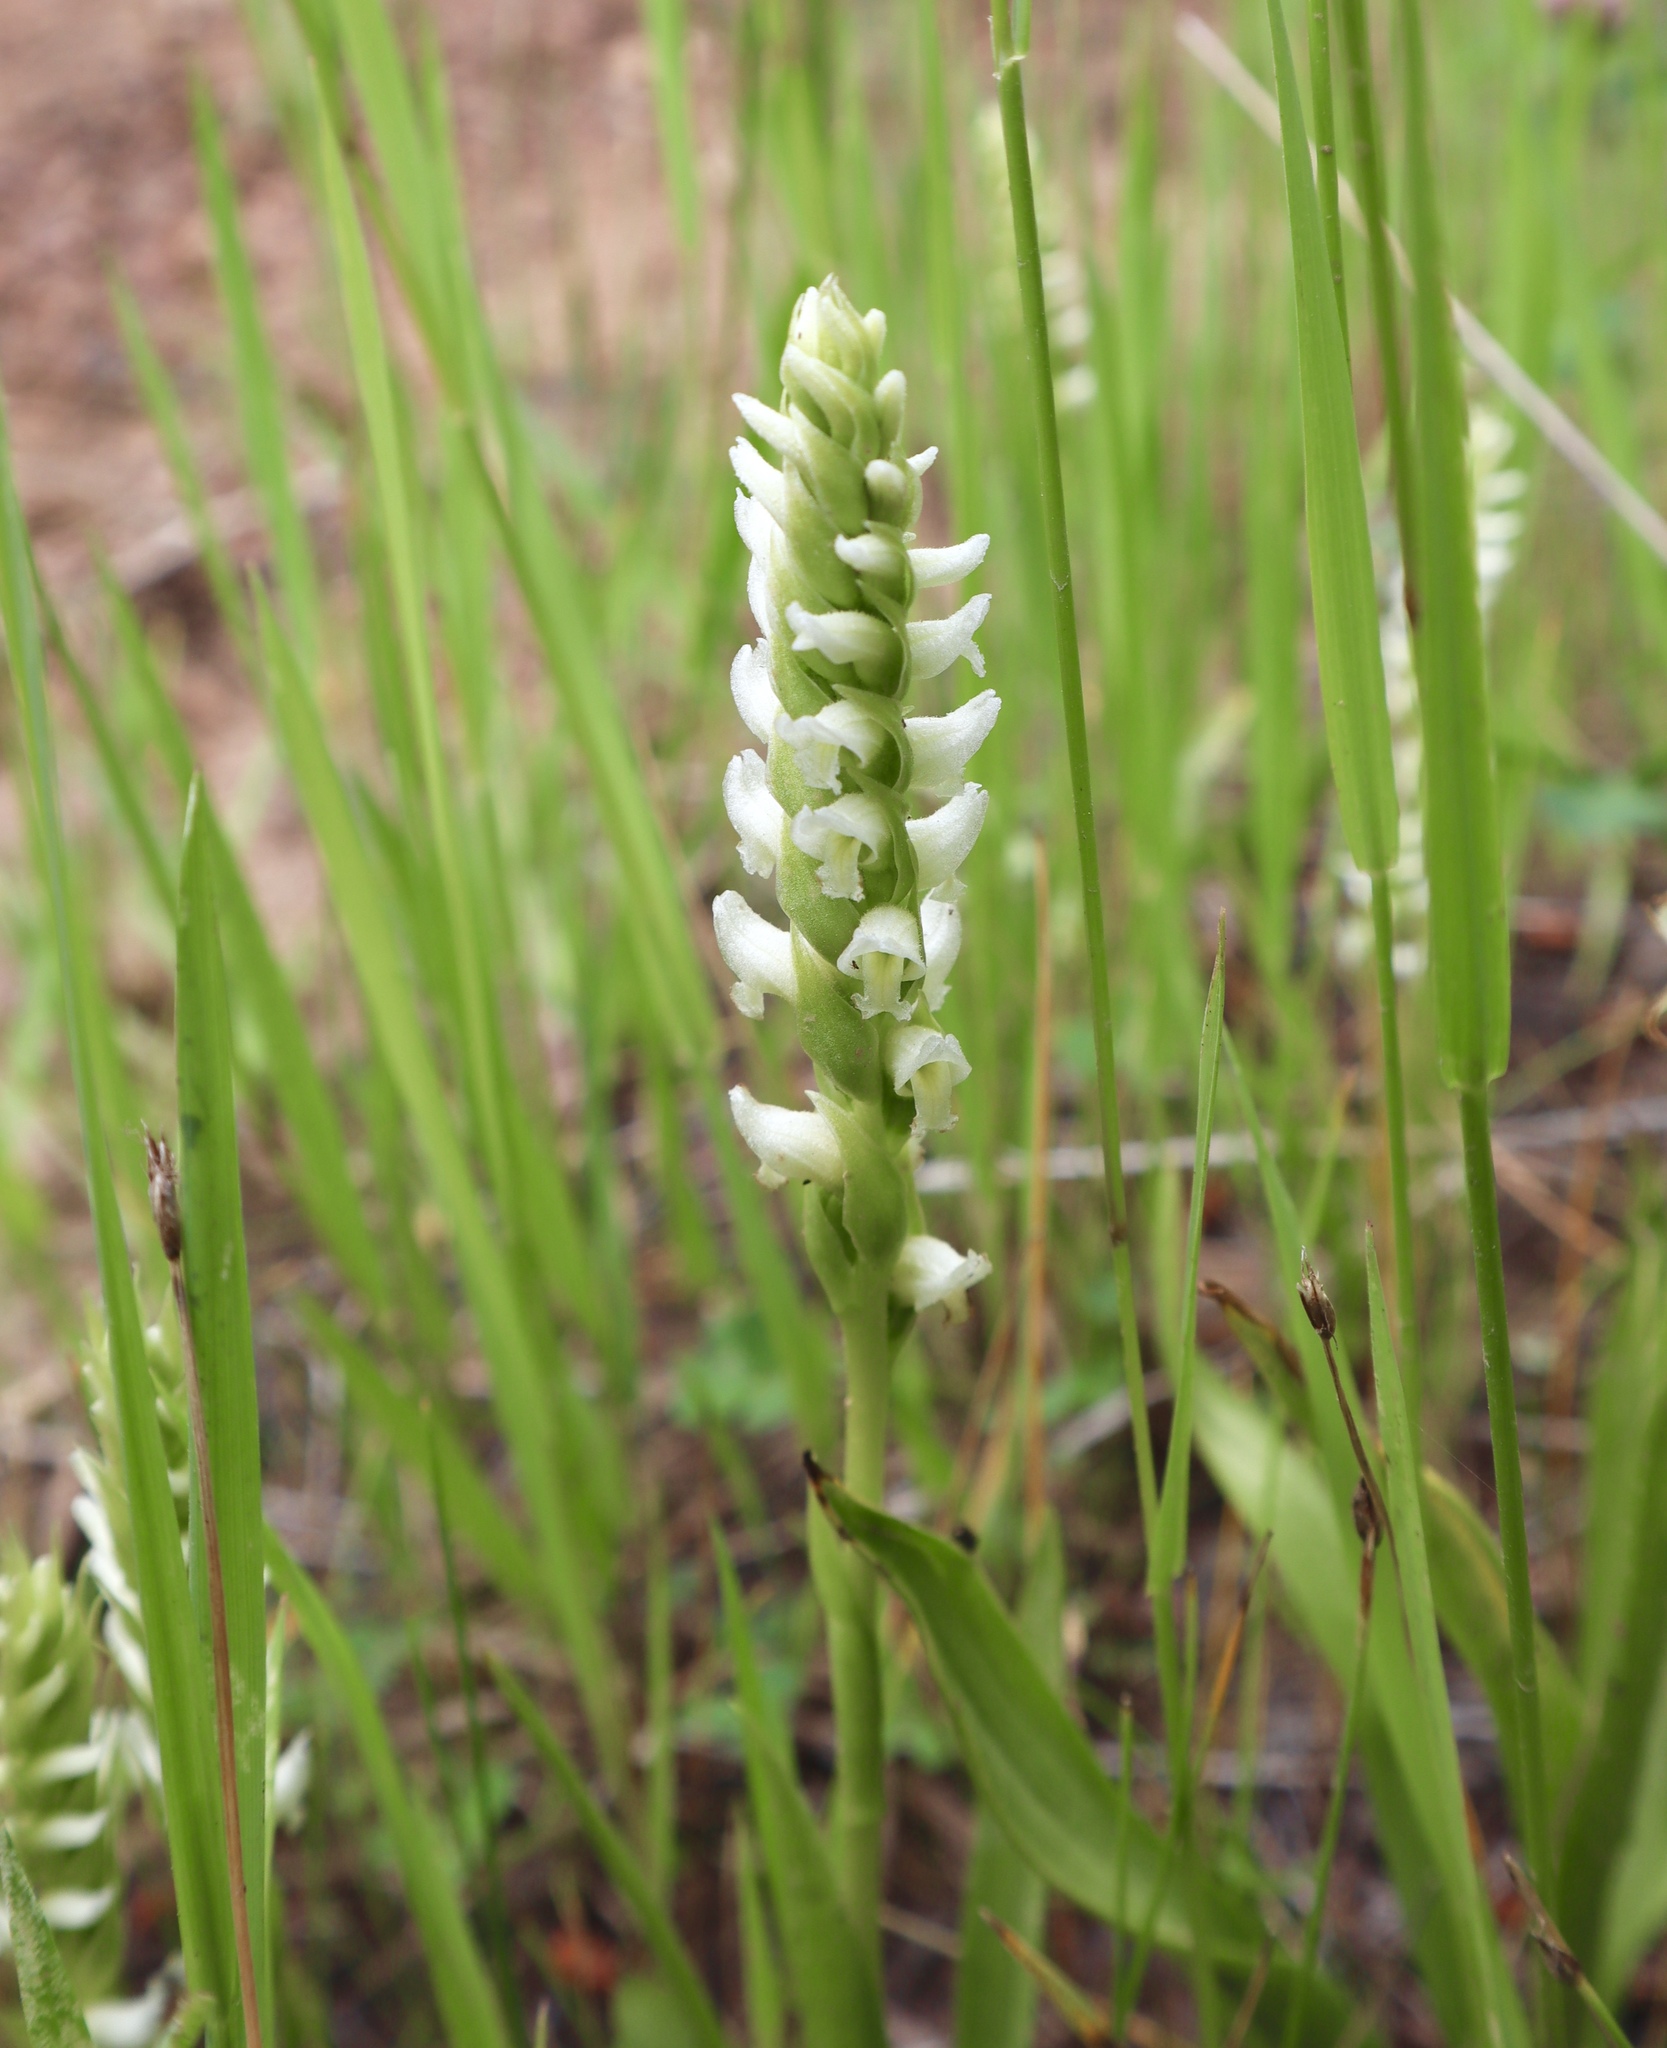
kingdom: Plantae
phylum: Tracheophyta
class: Liliopsida
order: Asparagales
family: Orchidaceae
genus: Spiranthes
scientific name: Spiranthes romanzoffiana
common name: Irish lady's-tresses
